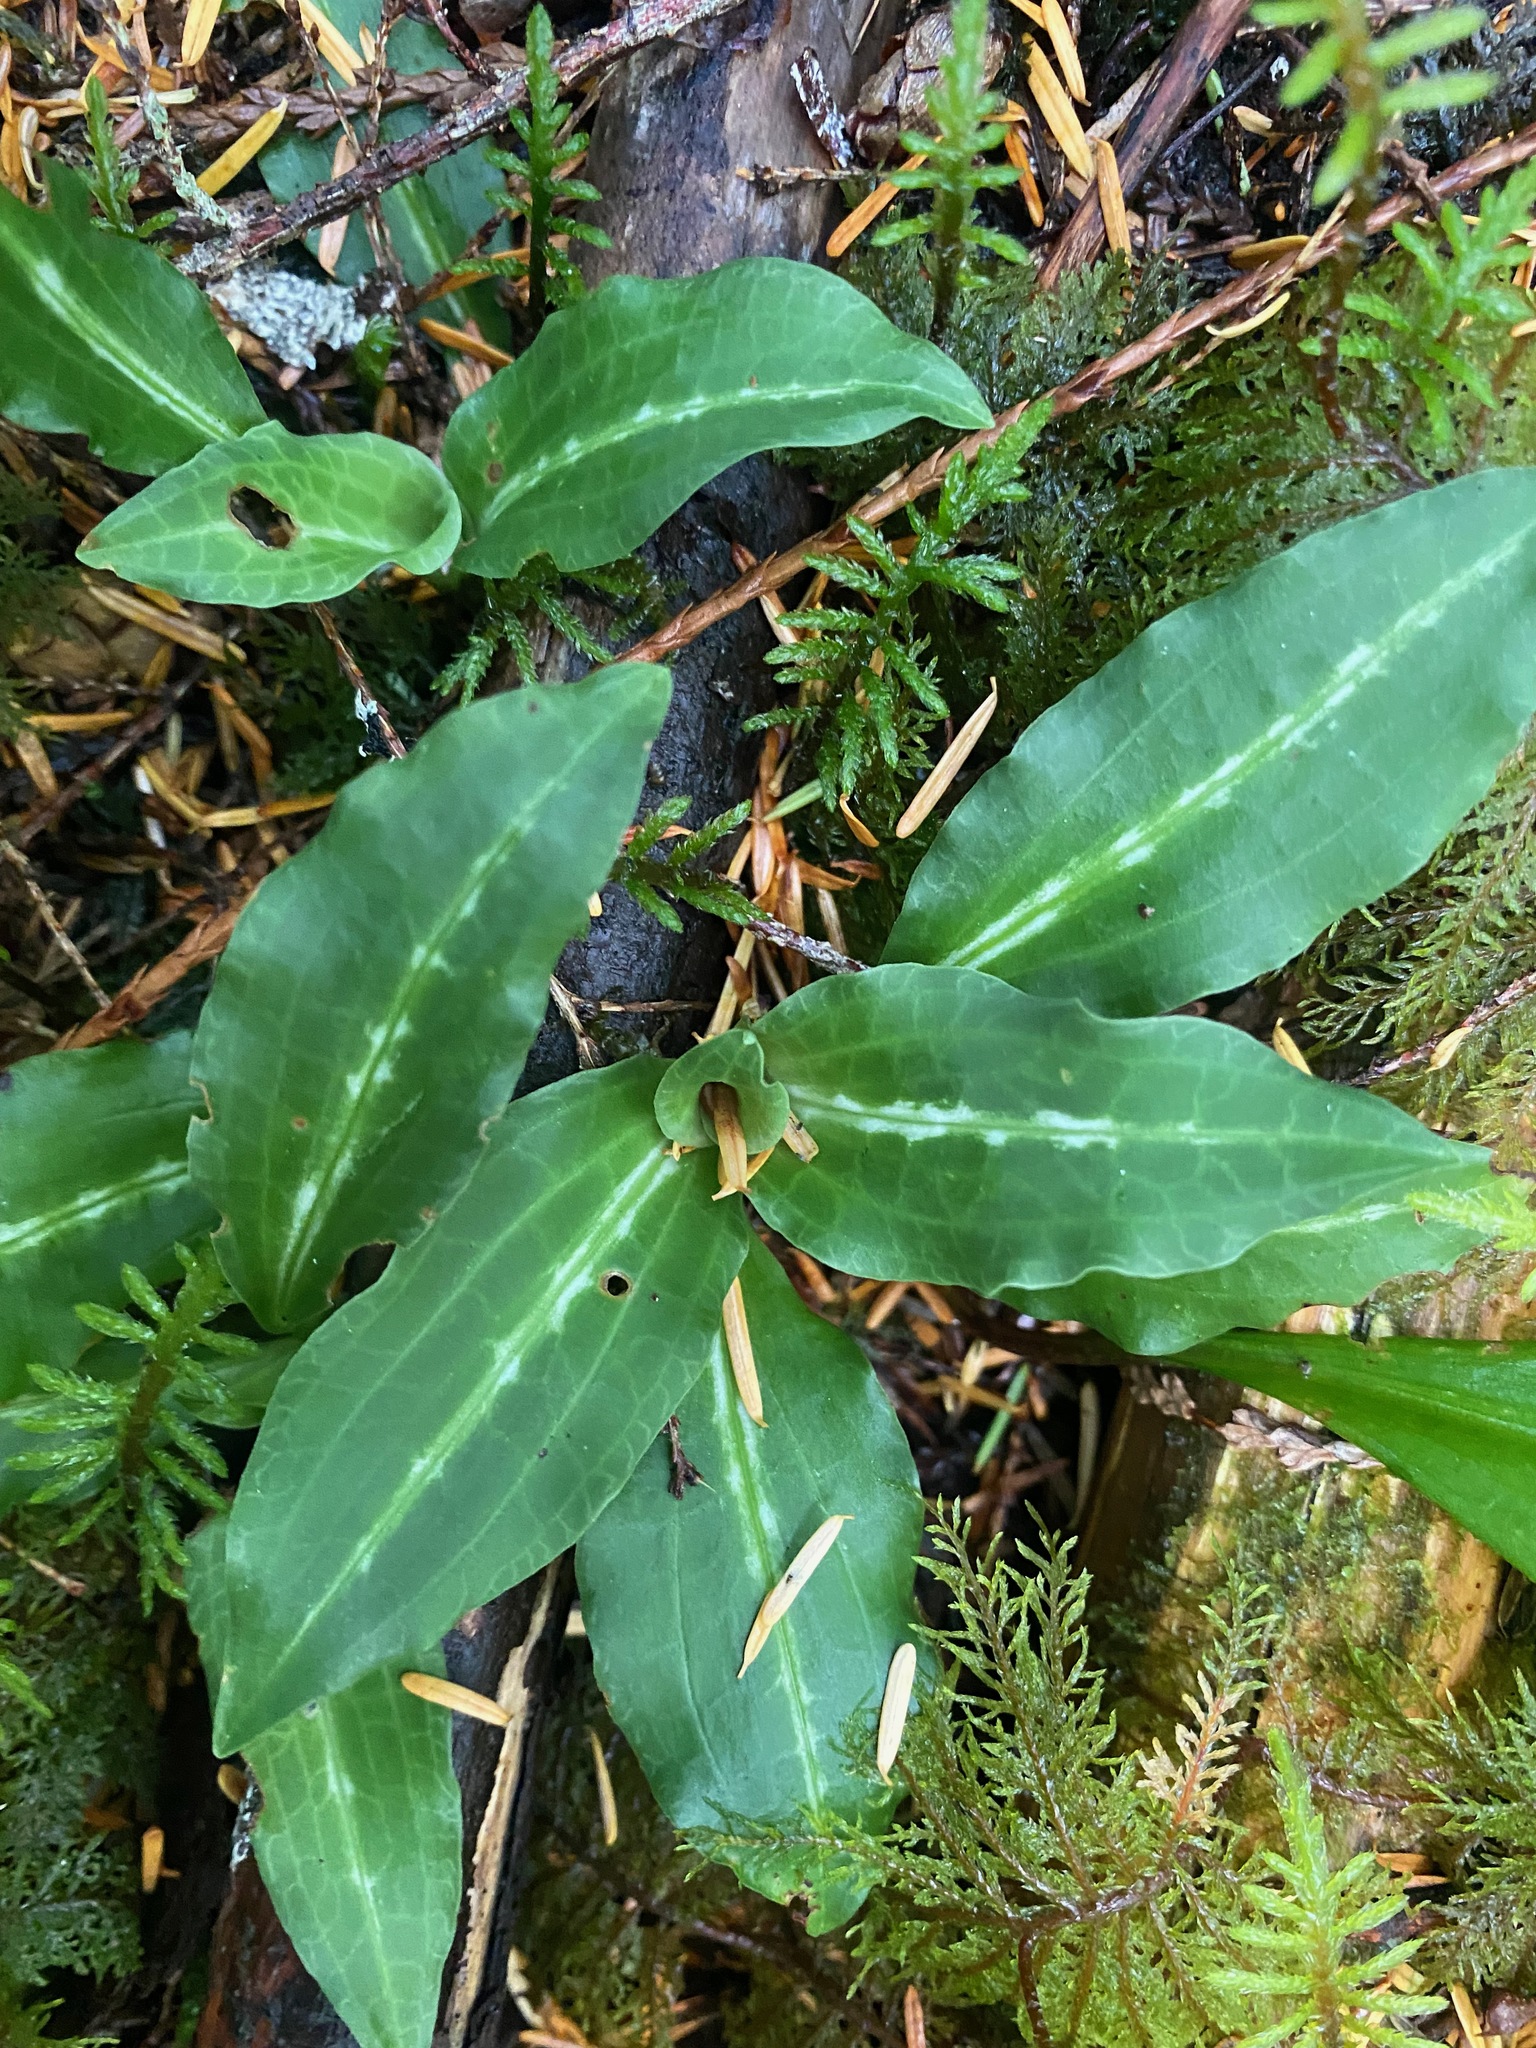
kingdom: Plantae
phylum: Tracheophyta
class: Liliopsida
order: Asparagales
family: Orchidaceae
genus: Goodyera
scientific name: Goodyera oblongifolia
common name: Giant rattlesnake-plantain
